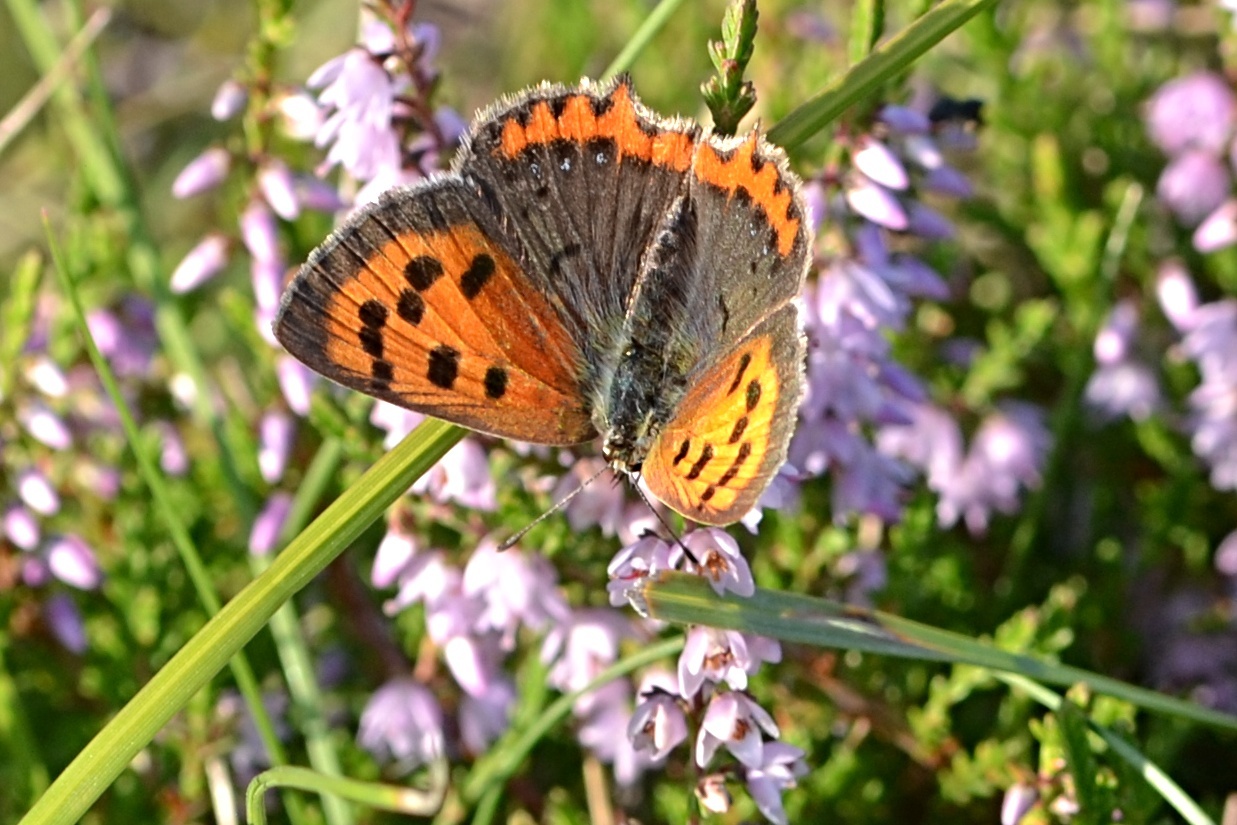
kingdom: Animalia
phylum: Arthropoda
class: Insecta
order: Lepidoptera
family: Lycaenidae
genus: Lycaena
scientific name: Lycaena phlaeas
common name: Small copper
